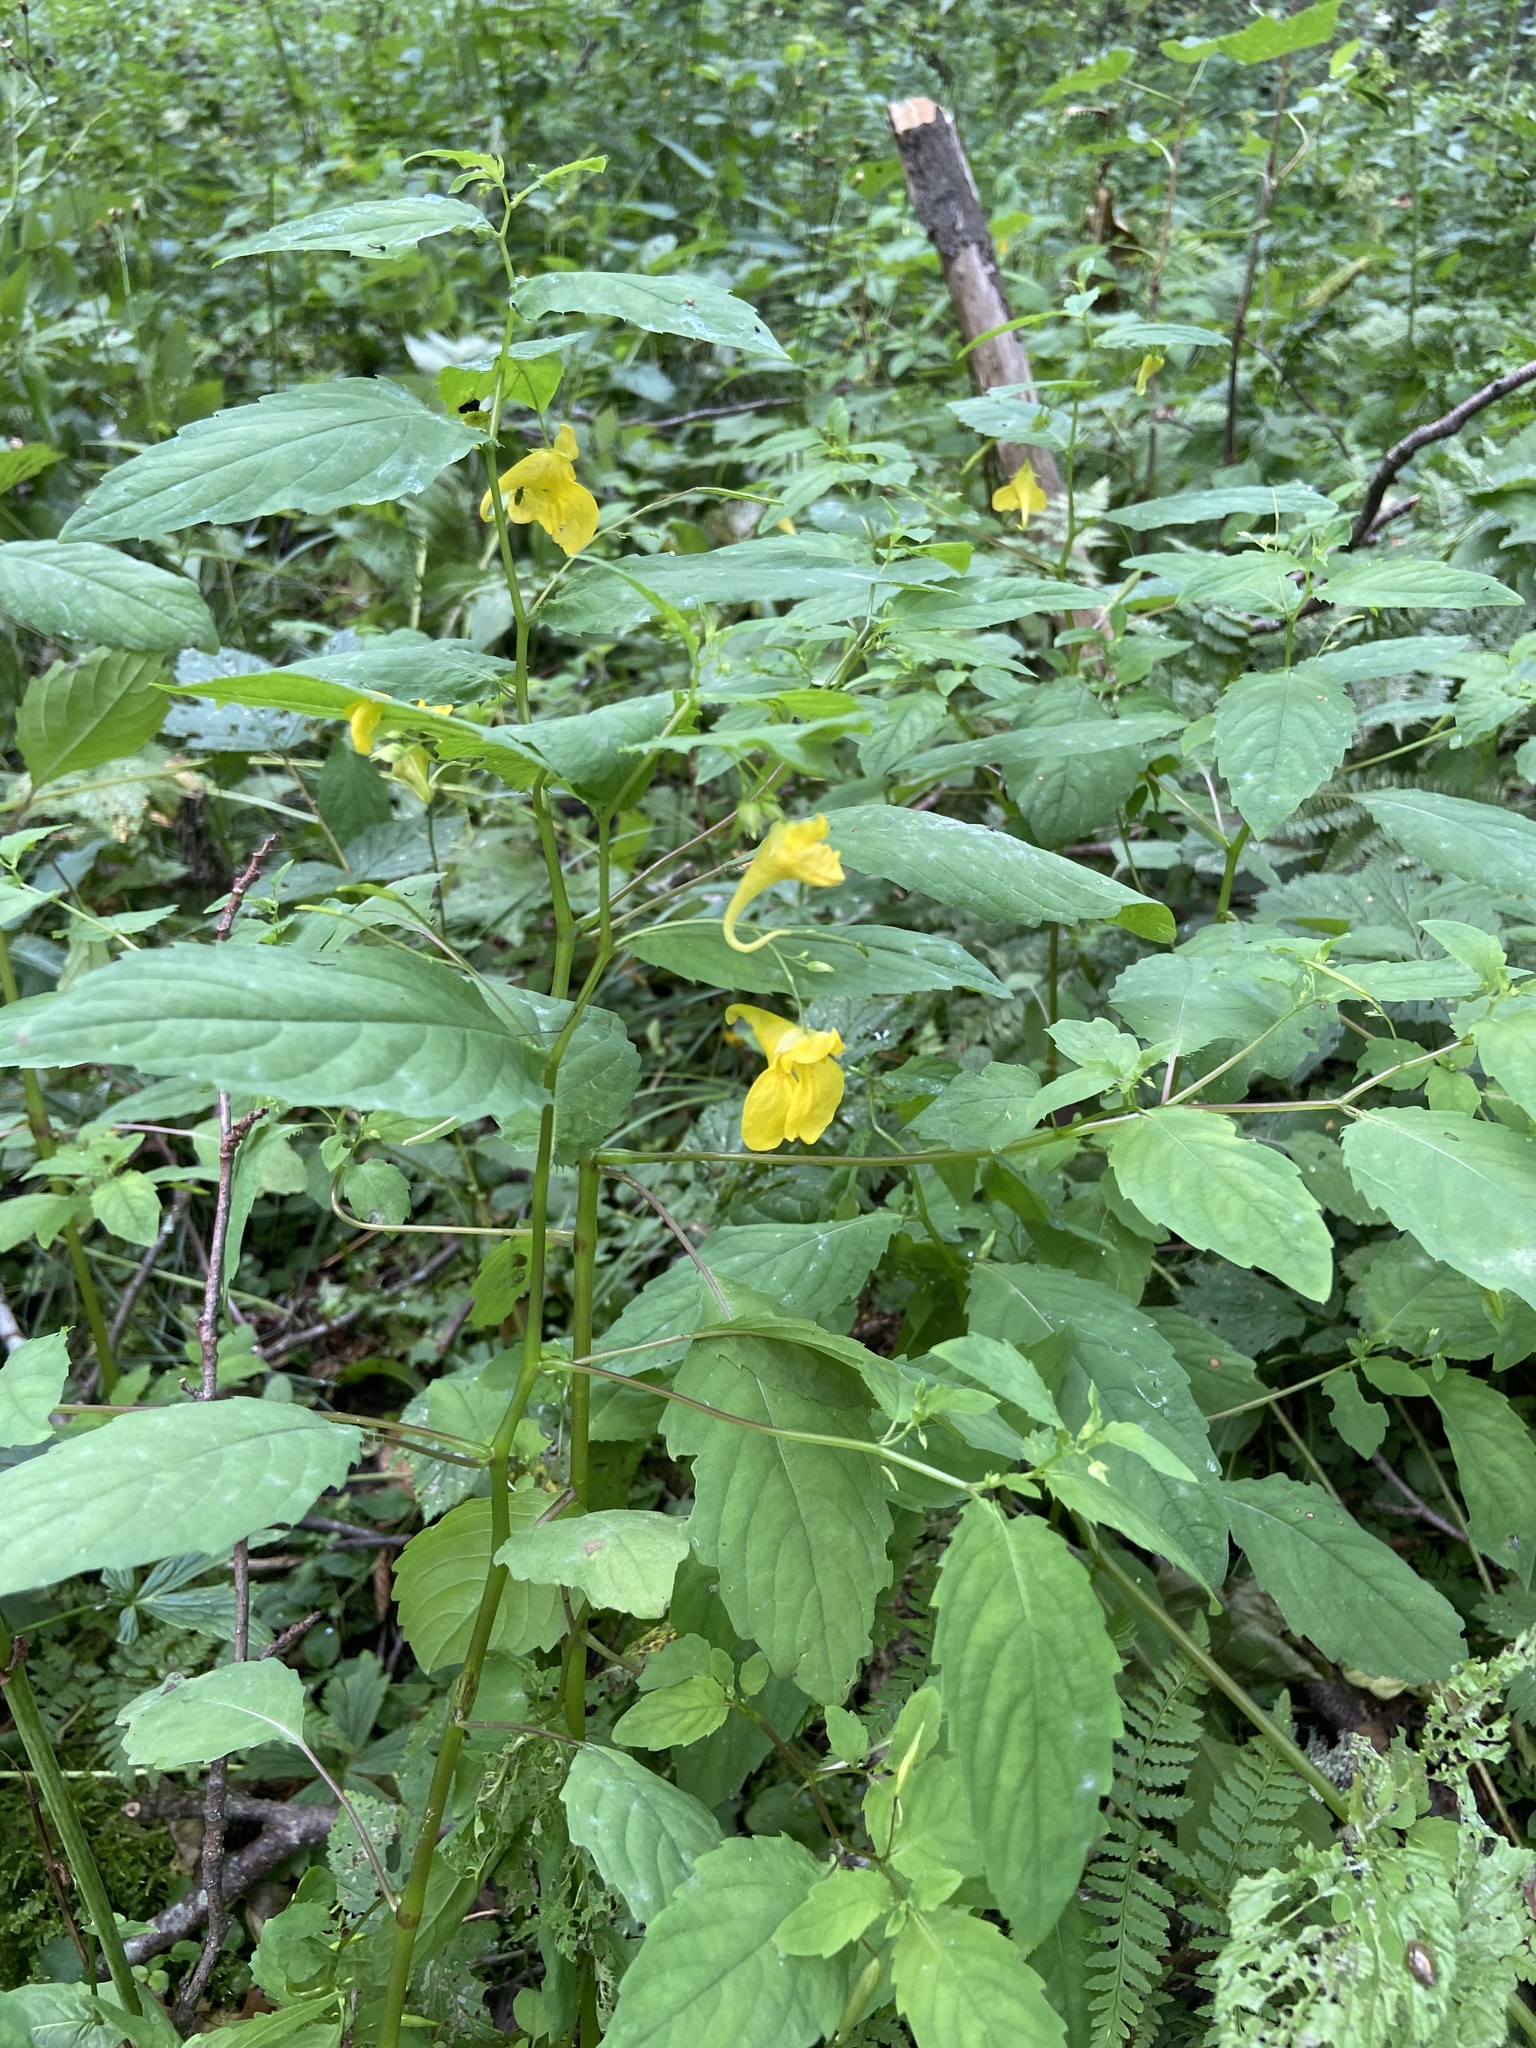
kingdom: Plantae
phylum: Tracheophyta
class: Magnoliopsida
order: Ericales
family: Balsaminaceae
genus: Impatiens
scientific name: Impatiens noli-tangere
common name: Touch-me-not balsam
